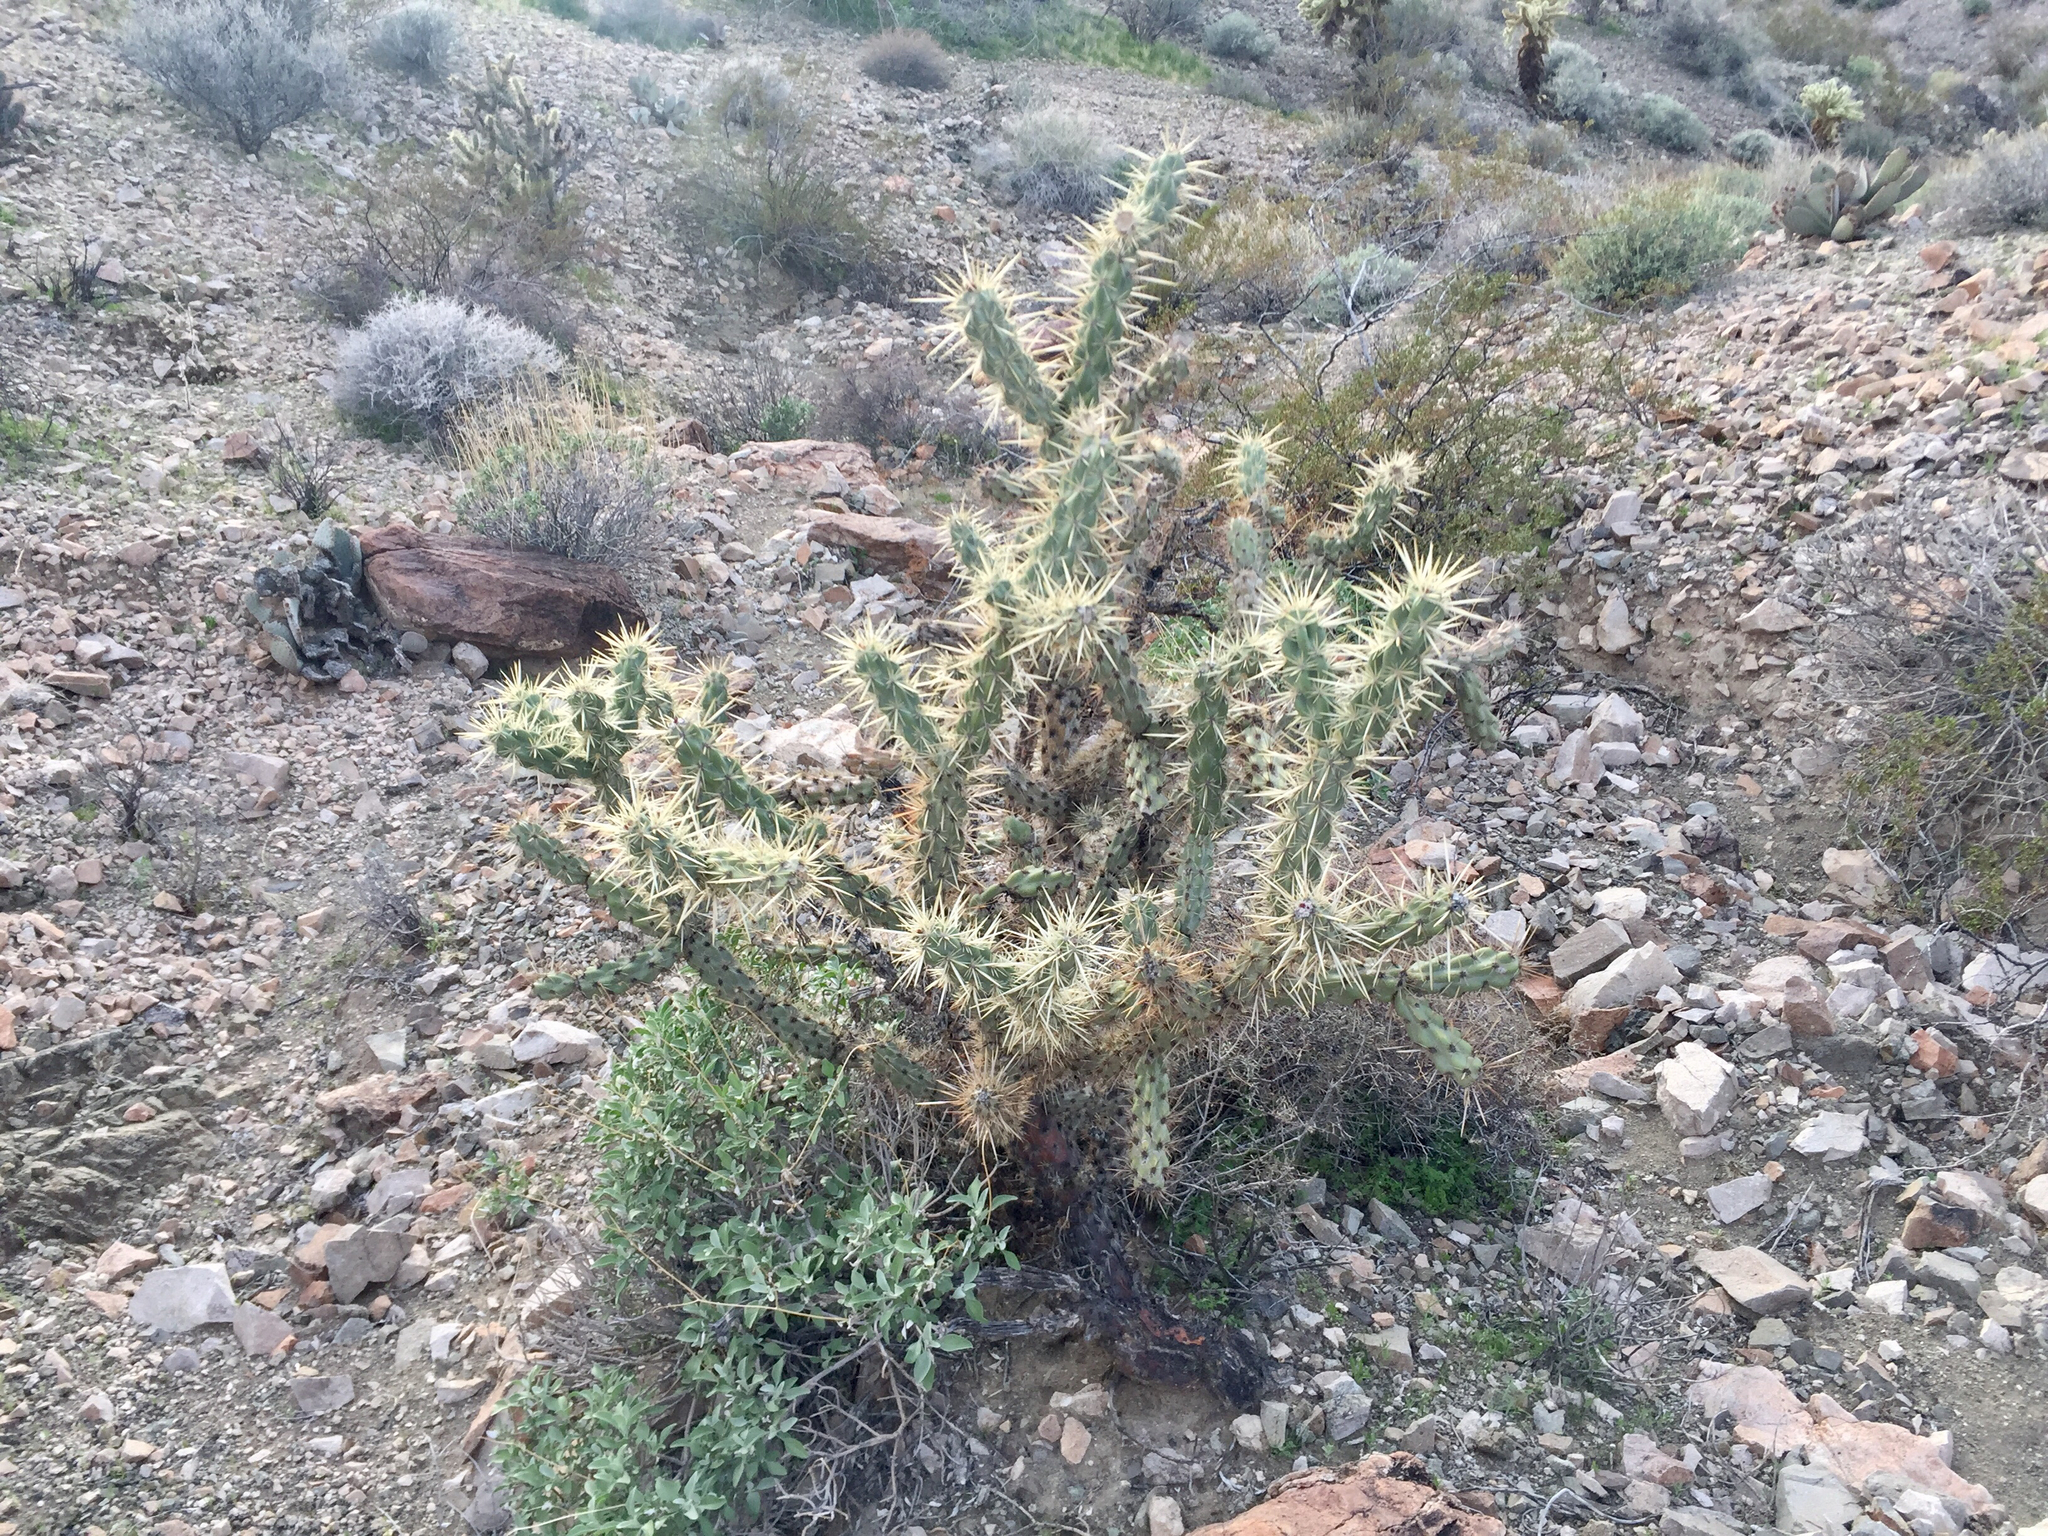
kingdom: Plantae
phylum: Tracheophyta
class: Magnoliopsida
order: Caryophyllales
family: Cactaceae
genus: Cylindropuntia
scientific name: Cylindropuntia acanthocarpa
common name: Buckhorn cholla
